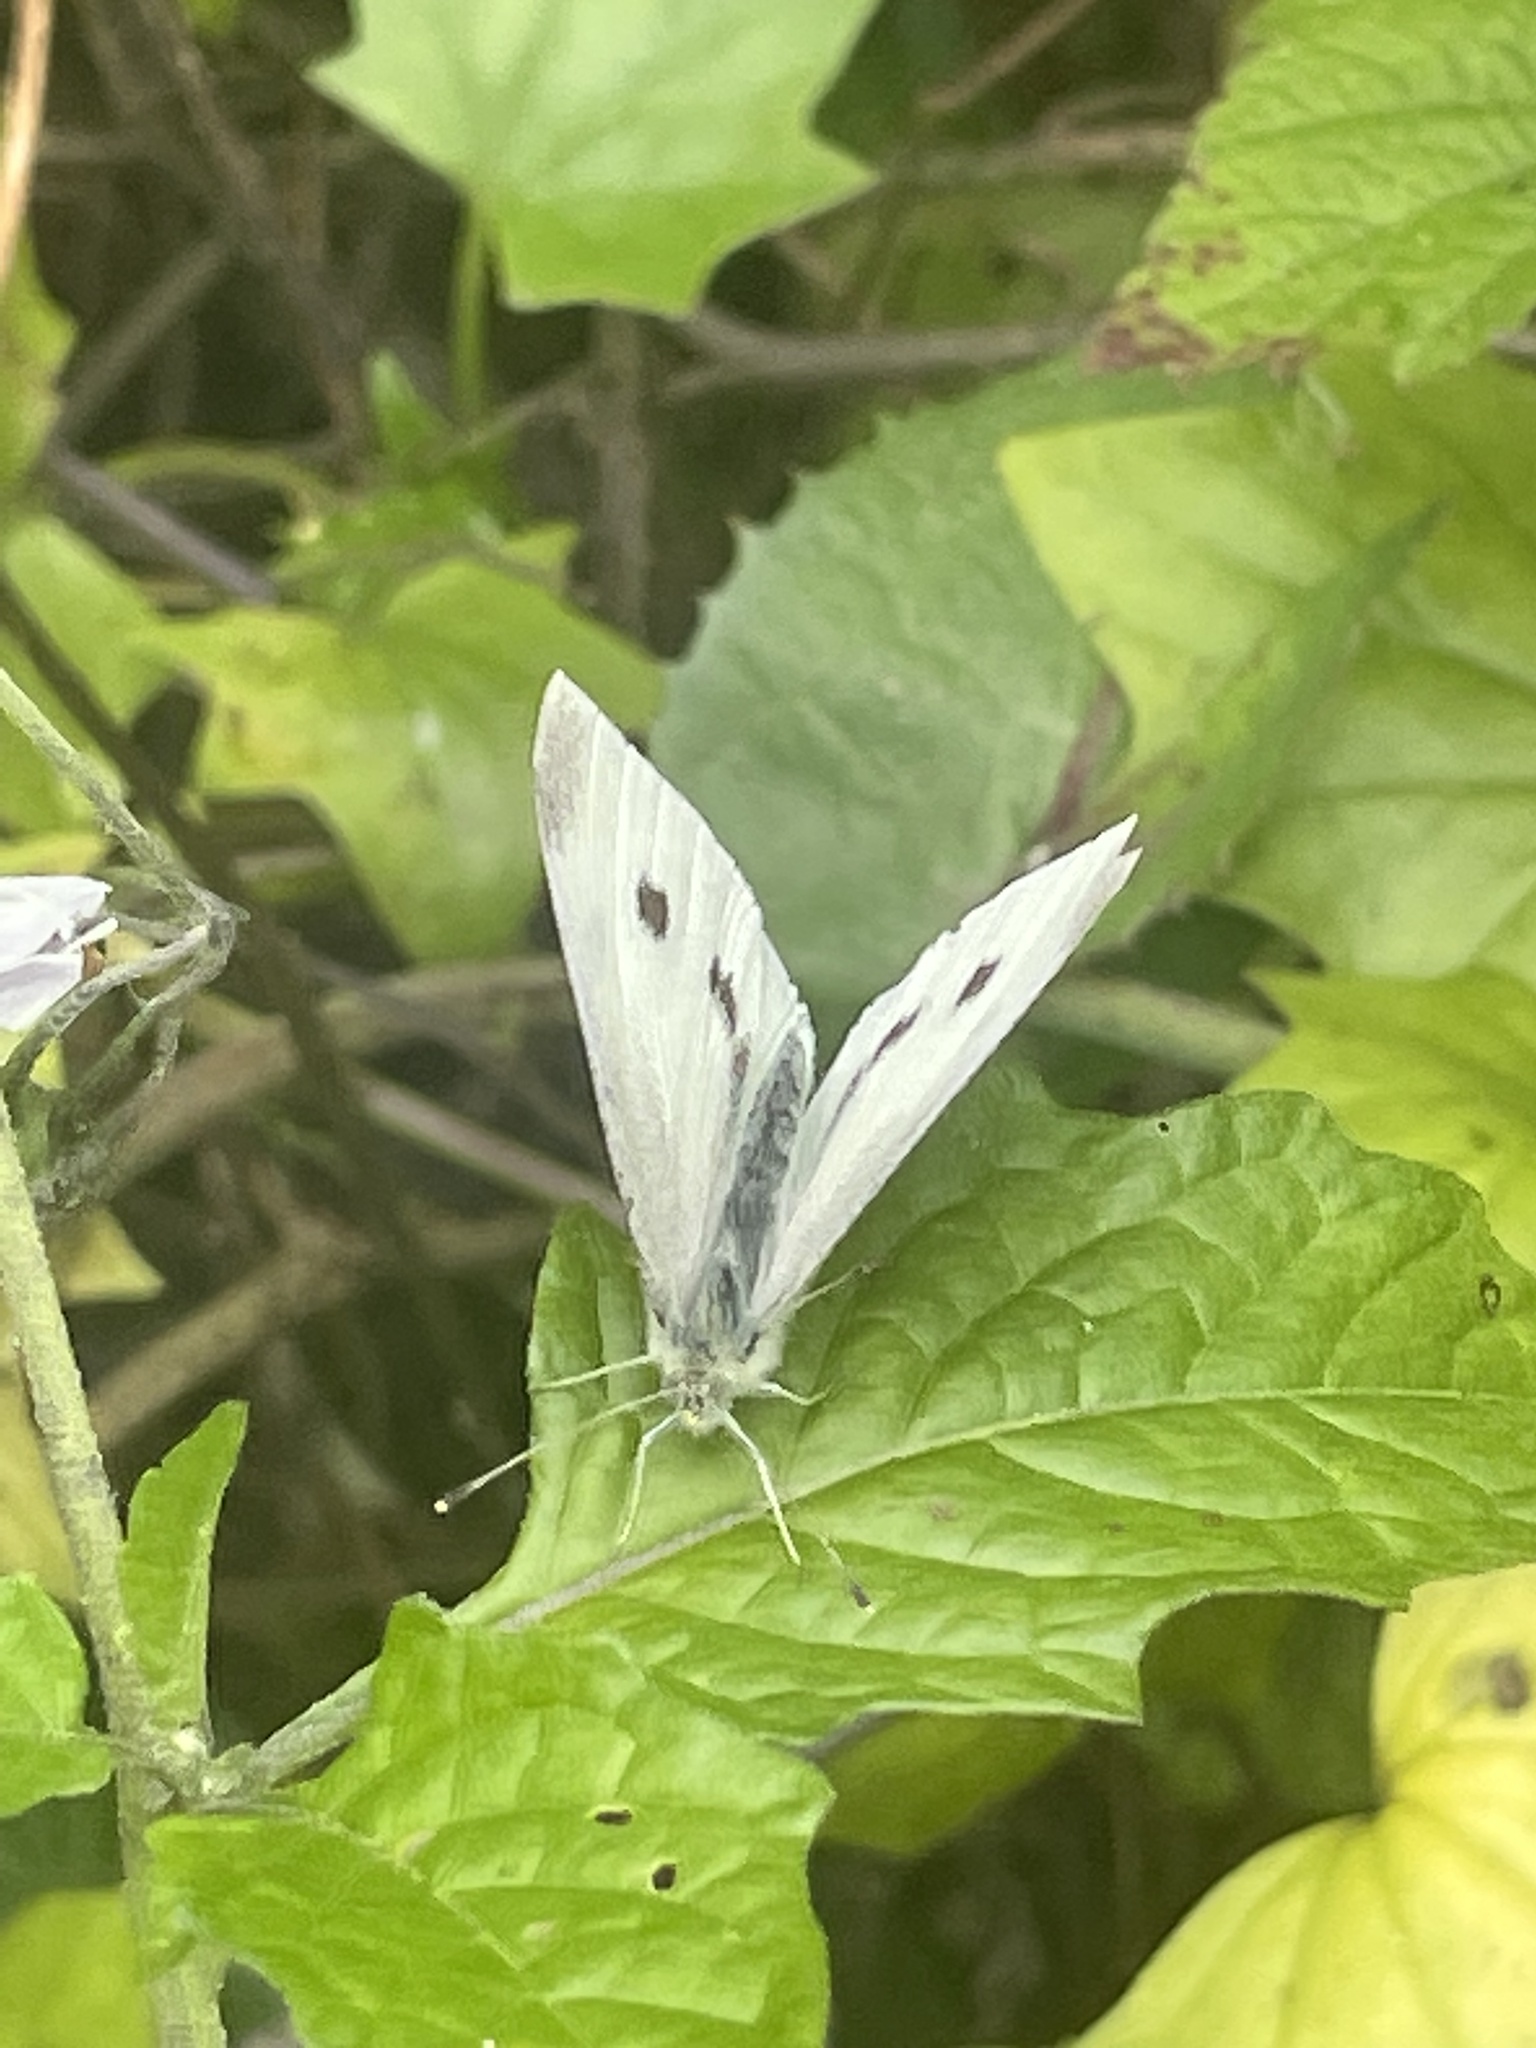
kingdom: Animalia
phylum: Arthropoda
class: Insecta
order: Lepidoptera
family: Pieridae
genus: Pieris
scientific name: Pieris rapae
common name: Small white
